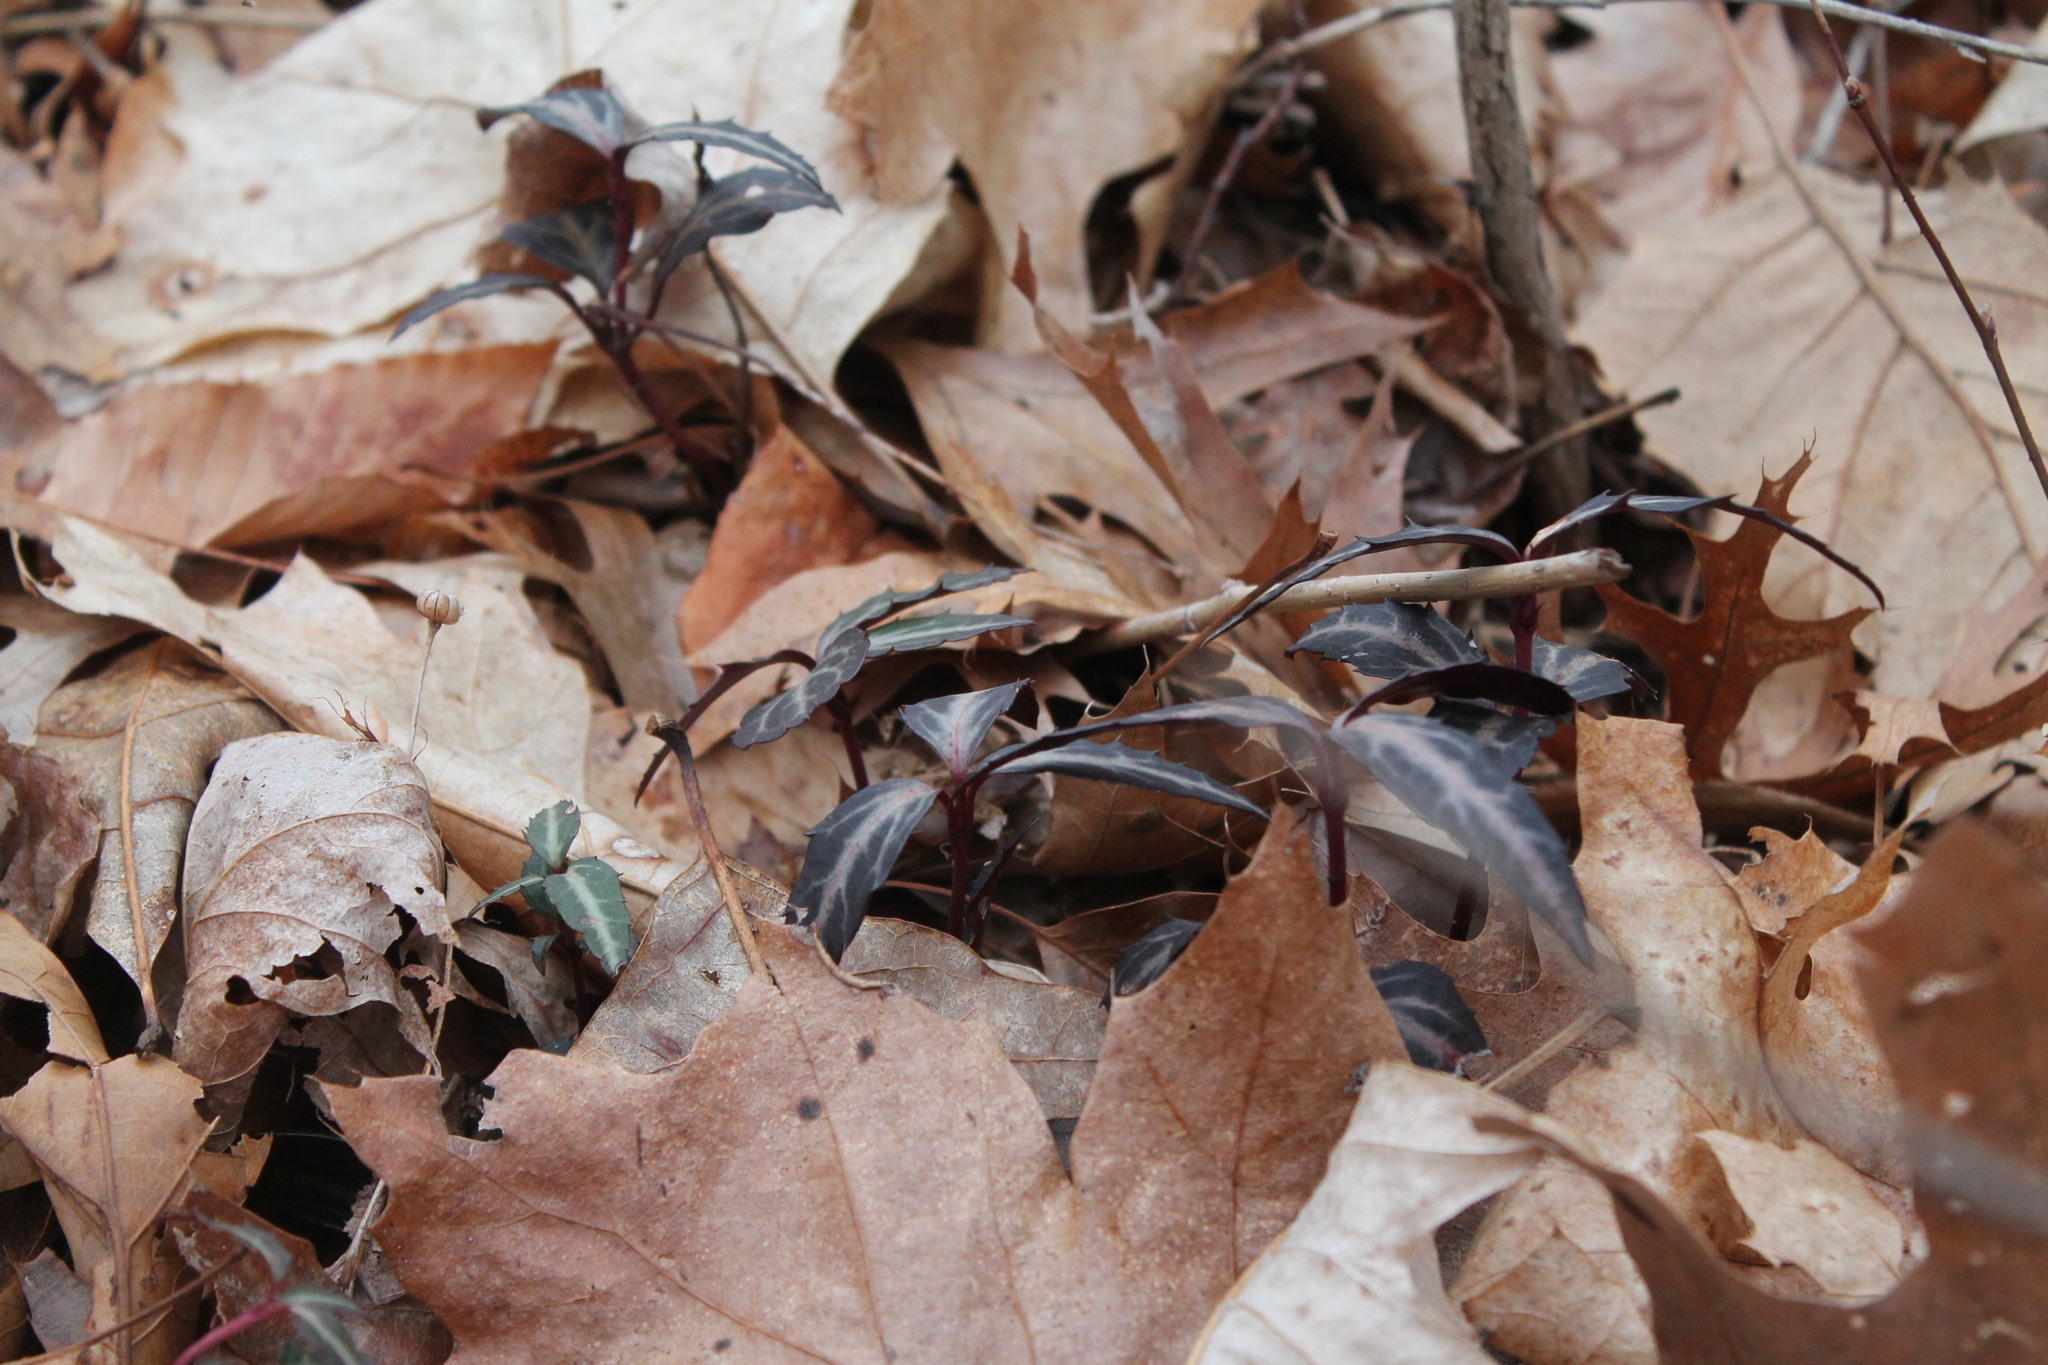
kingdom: Plantae
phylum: Tracheophyta
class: Magnoliopsida
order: Ericales
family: Ericaceae
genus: Chimaphila
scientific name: Chimaphila maculata
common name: Spotted pipsissewa
